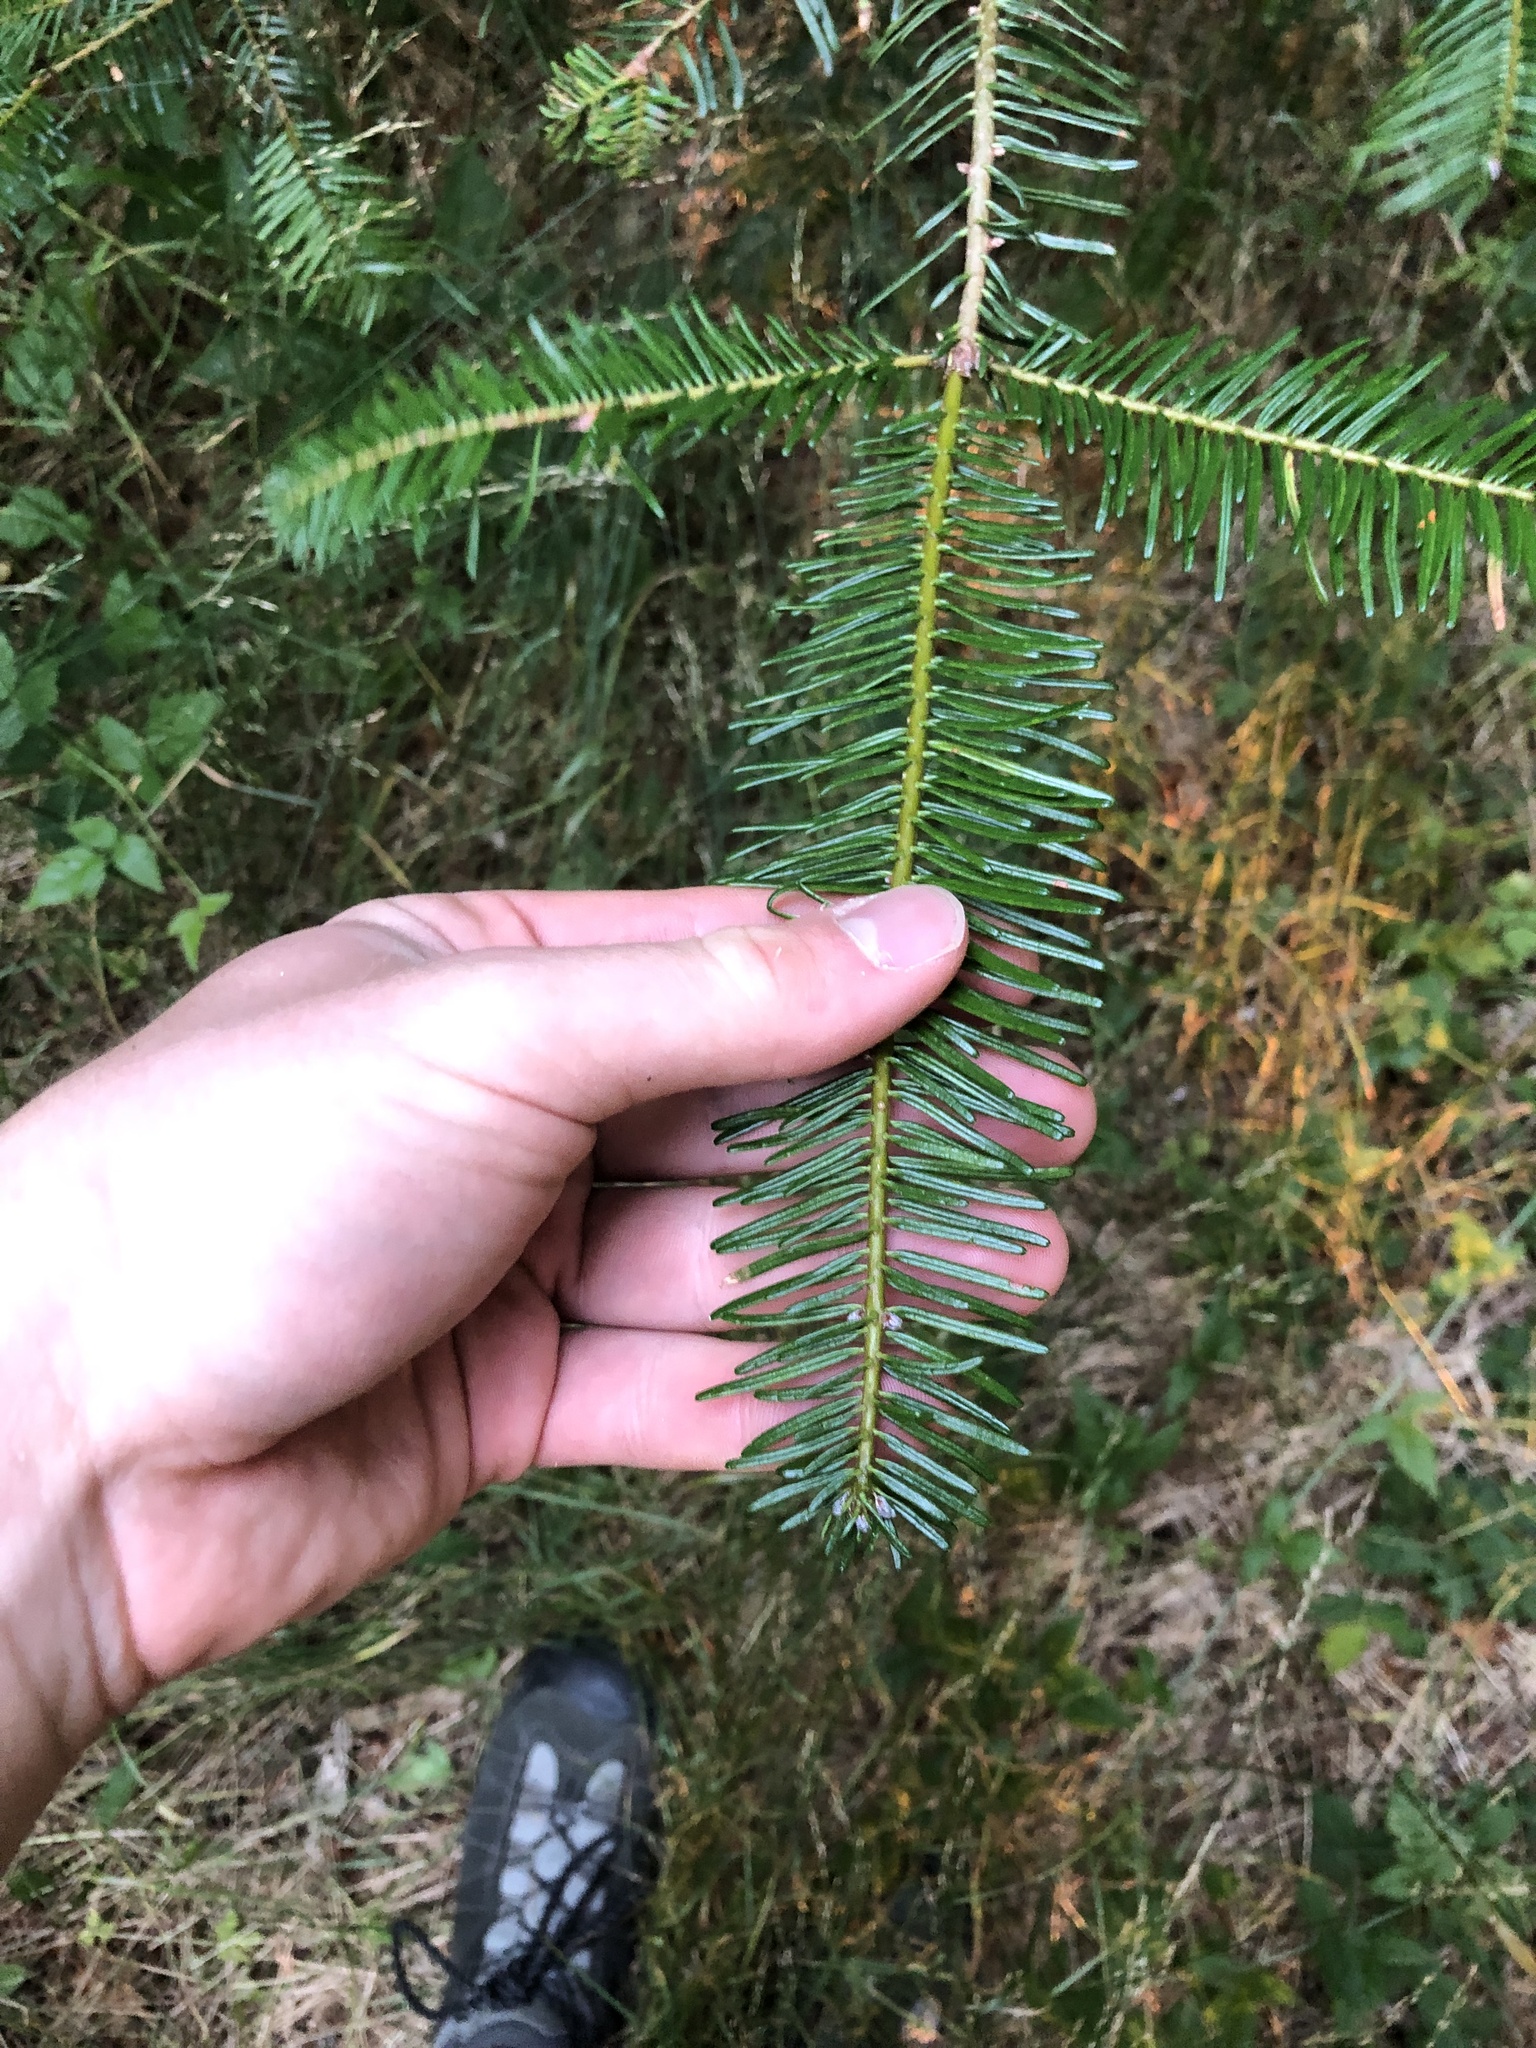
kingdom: Plantae
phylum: Tracheophyta
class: Pinopsida
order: Pinales
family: Pinaceae
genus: Abies
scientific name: Abies grandis
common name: Giant fir
